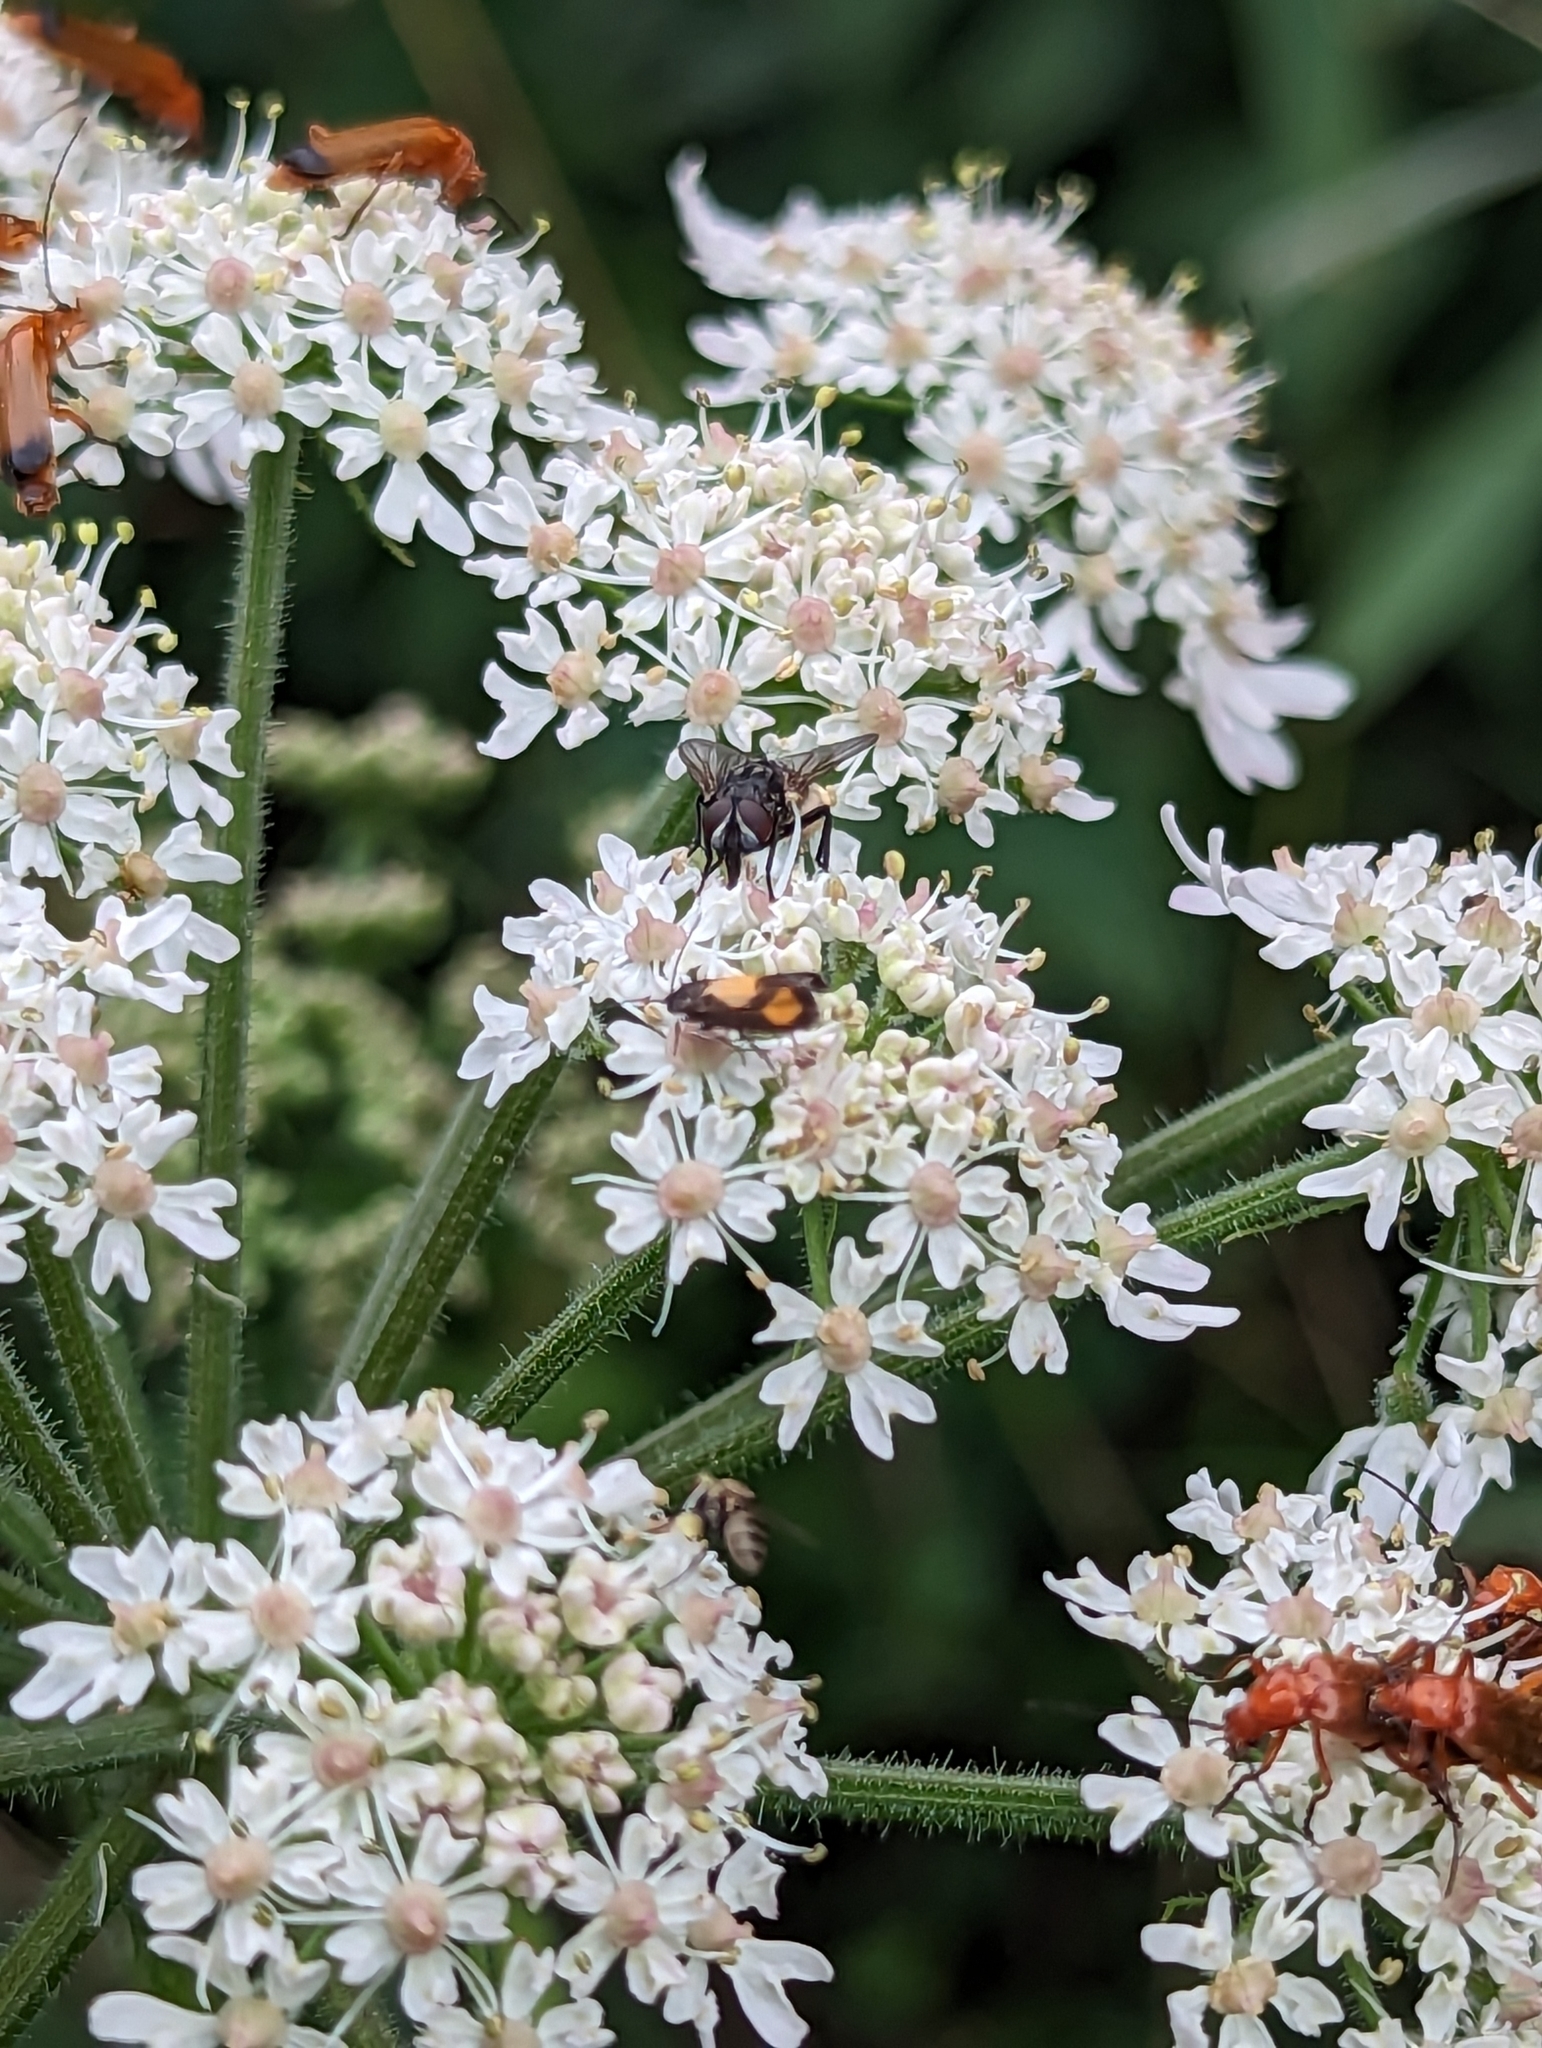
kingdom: Animalia
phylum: Arthropoda
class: Insecta
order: Lepidoptera
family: Tortricidae
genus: Pammene
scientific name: Pammene aurana
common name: Orange-spot piercer
